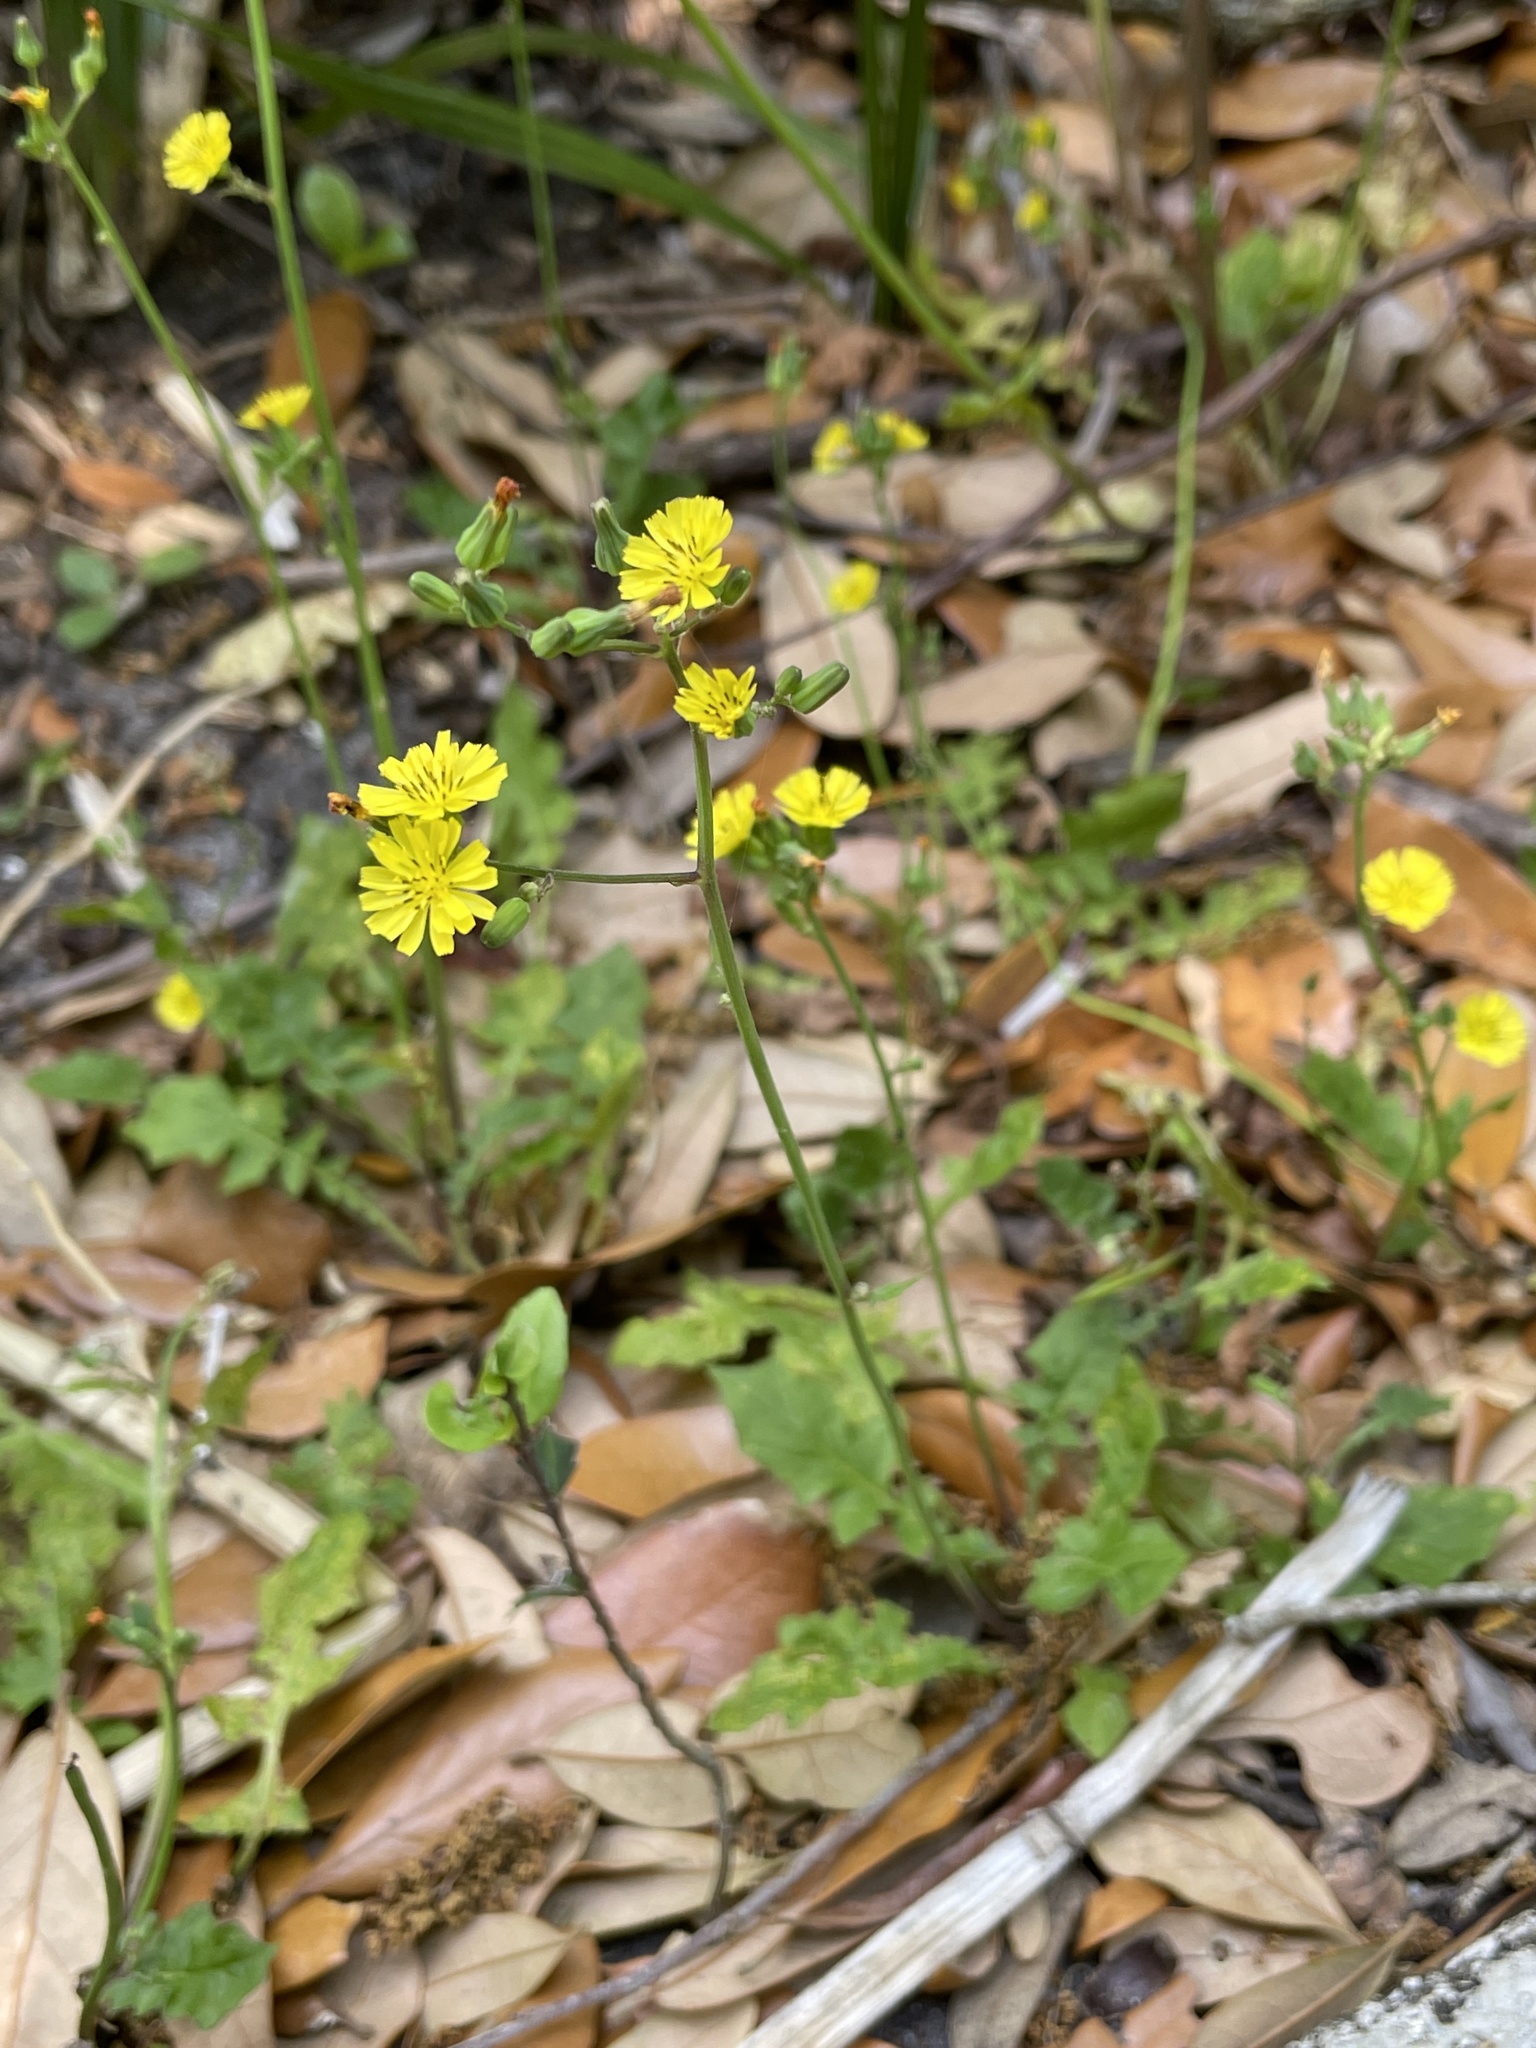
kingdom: Plantae
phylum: Tracheophyta
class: Magnoliopsida
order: Asterales
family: Asteraceae
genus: Youngia
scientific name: Youngia japonica
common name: Oriental false hawksbeard
